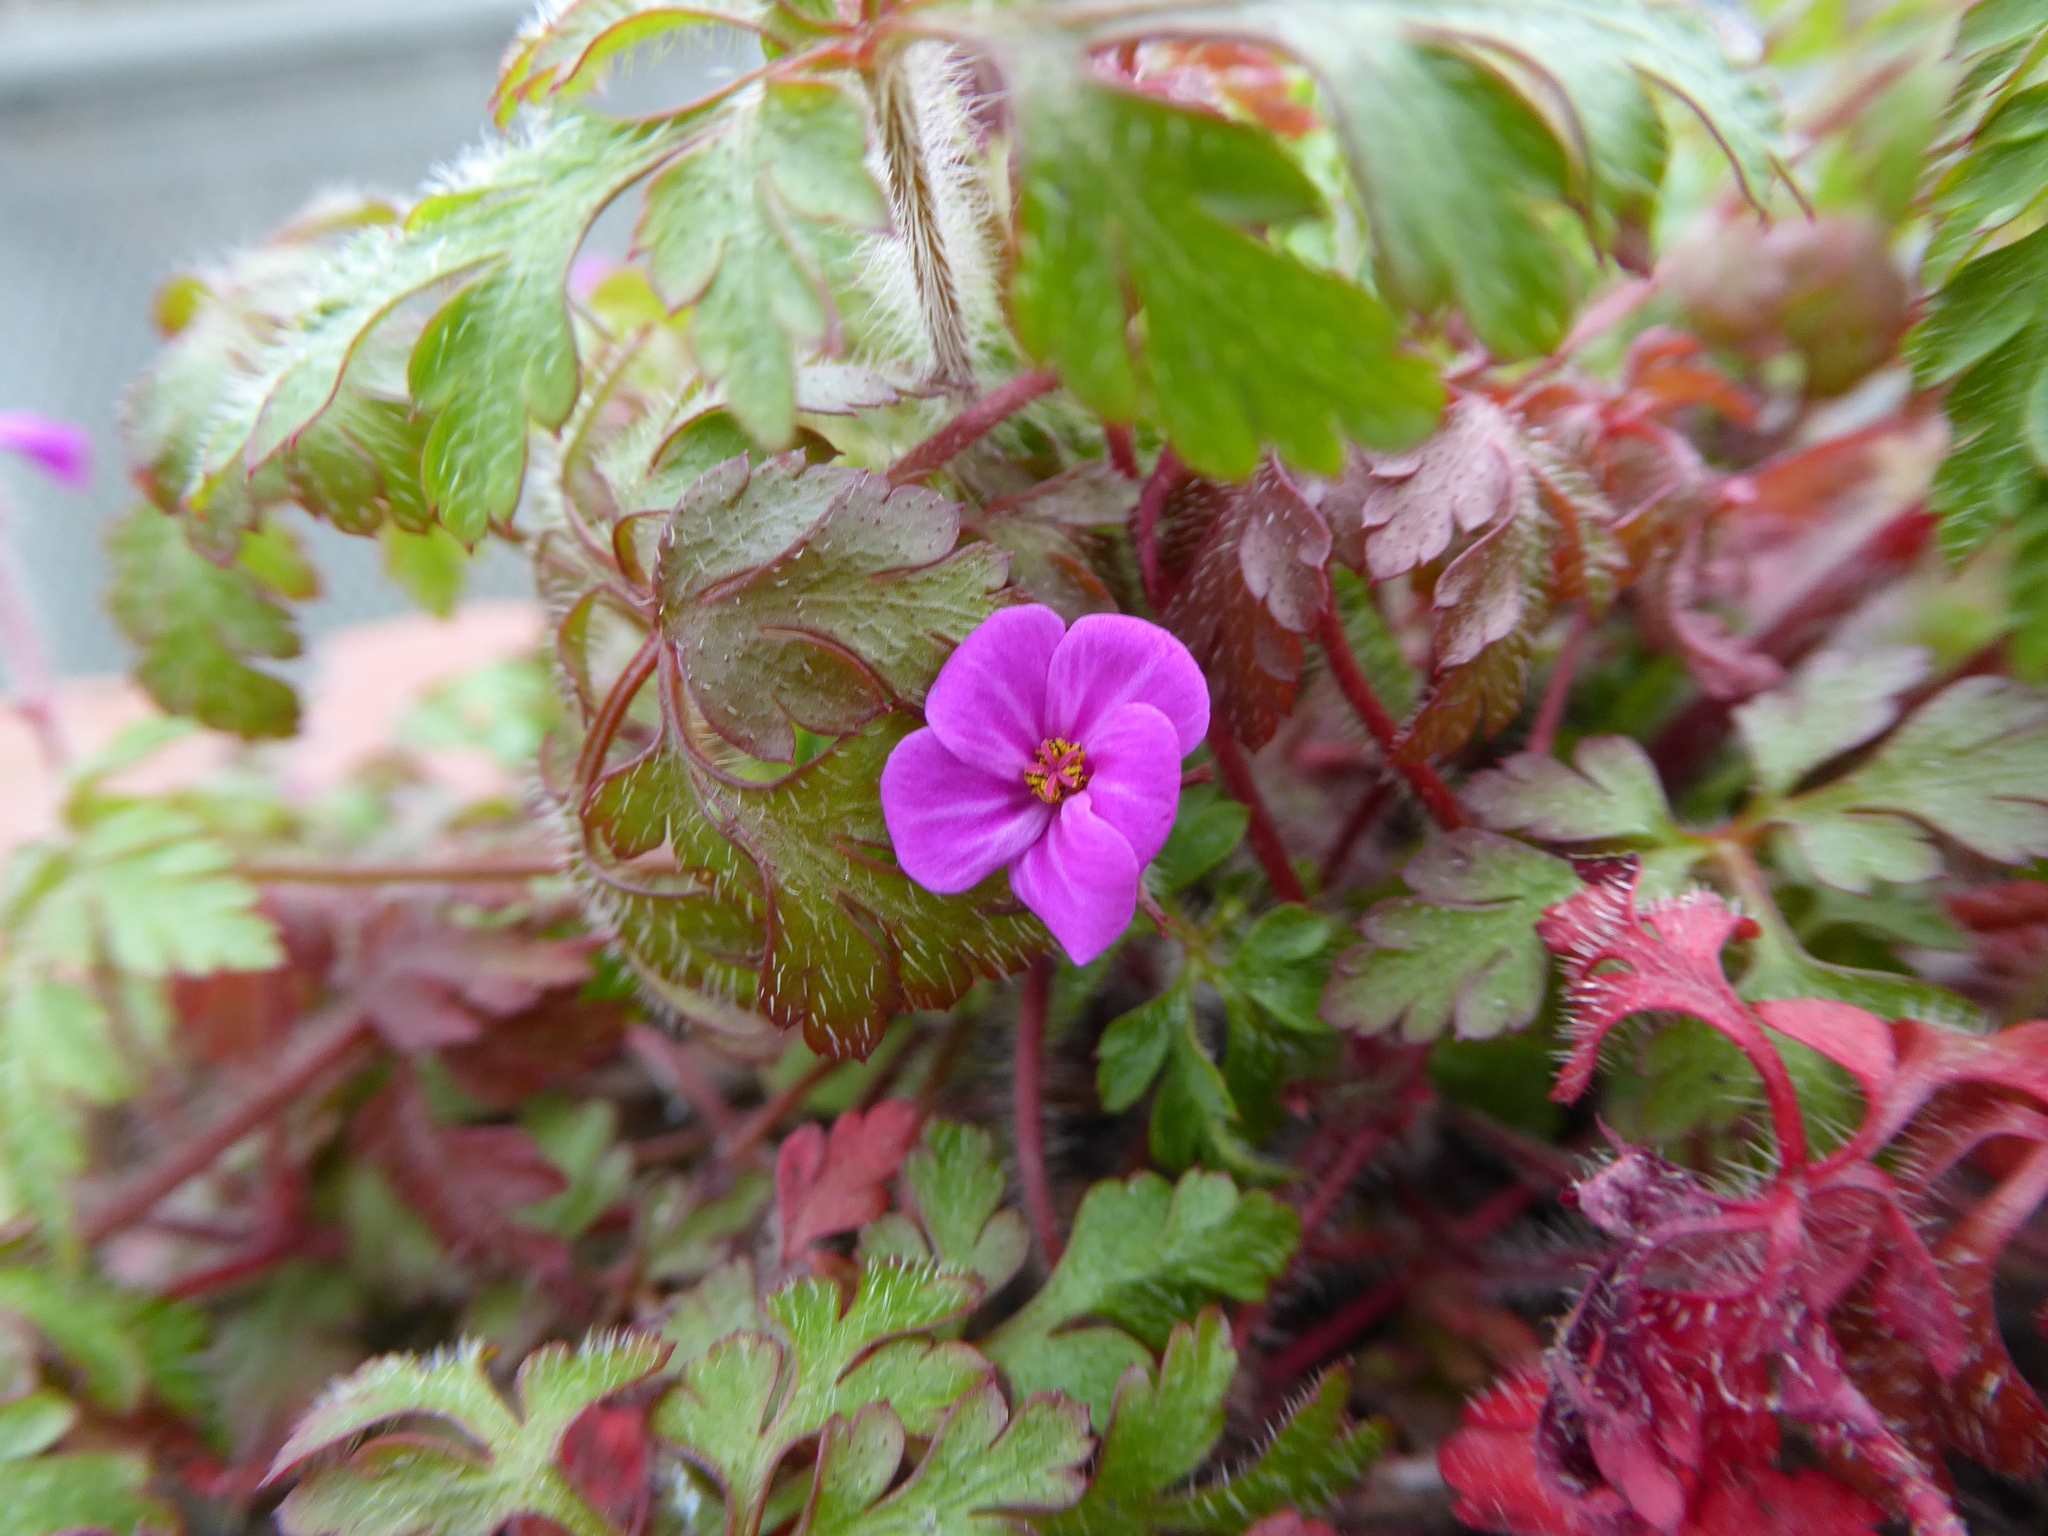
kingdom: Plantae
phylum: Tracheophyta
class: Magnoliopsida
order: Geraniales
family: Geraniaceae
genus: Geranium
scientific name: Geranium robertianum
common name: Herb-robert
